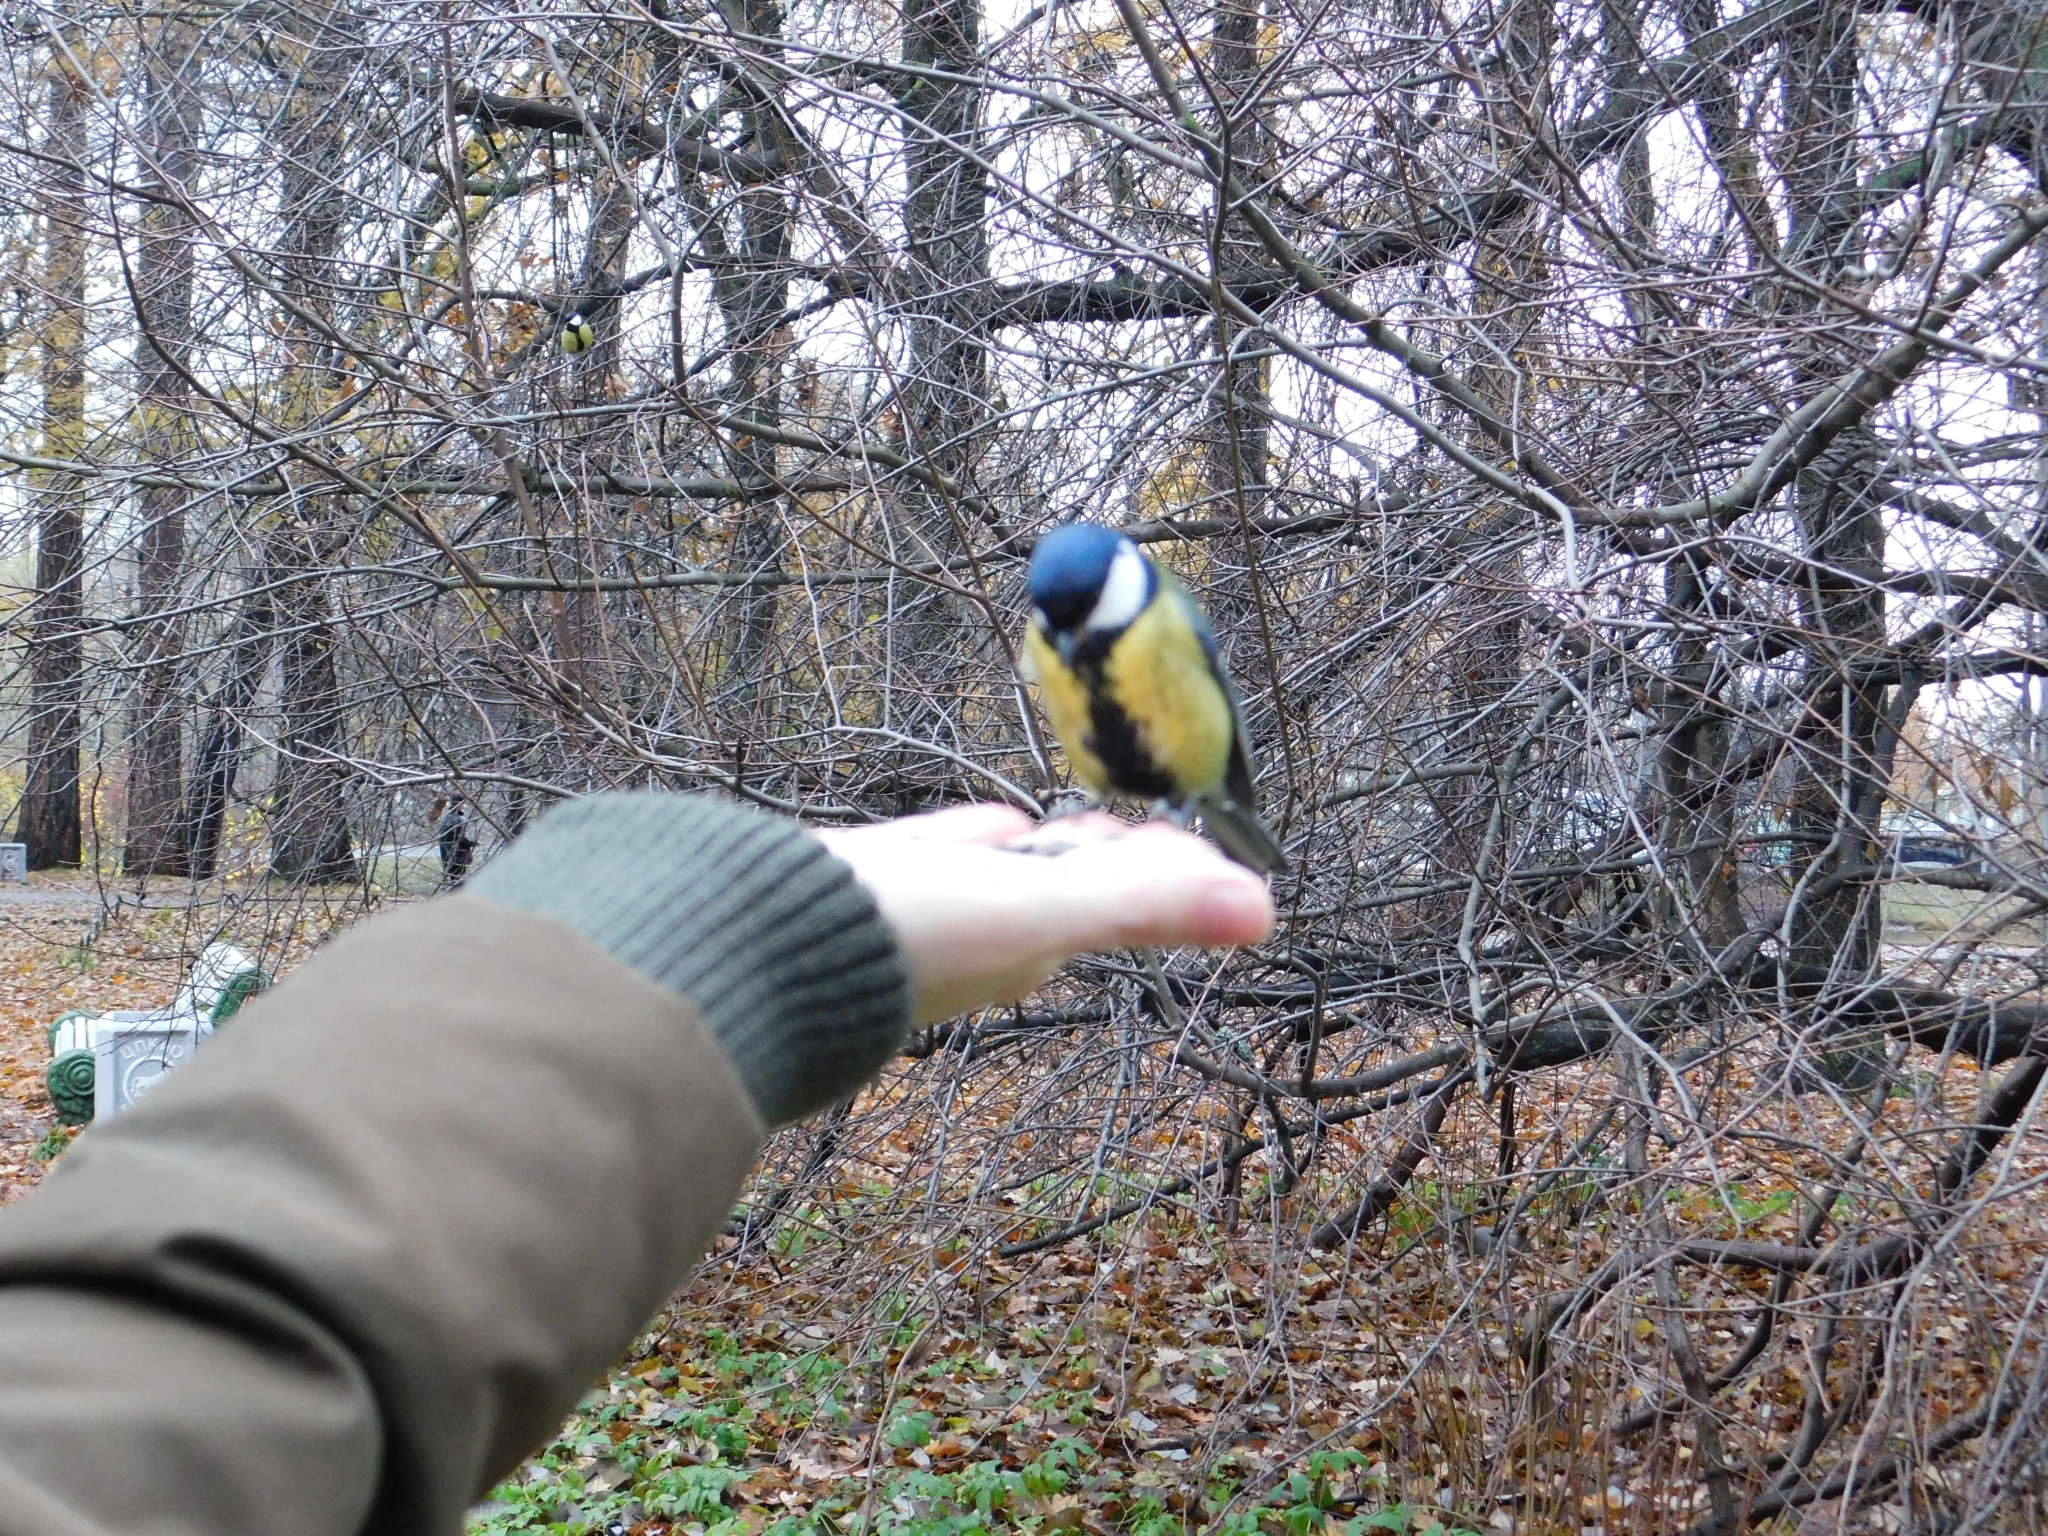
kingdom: Animalia
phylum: Chordata
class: Aves
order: Passeriformes
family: Paridae
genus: Parus
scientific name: Parus major
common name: Great tit
